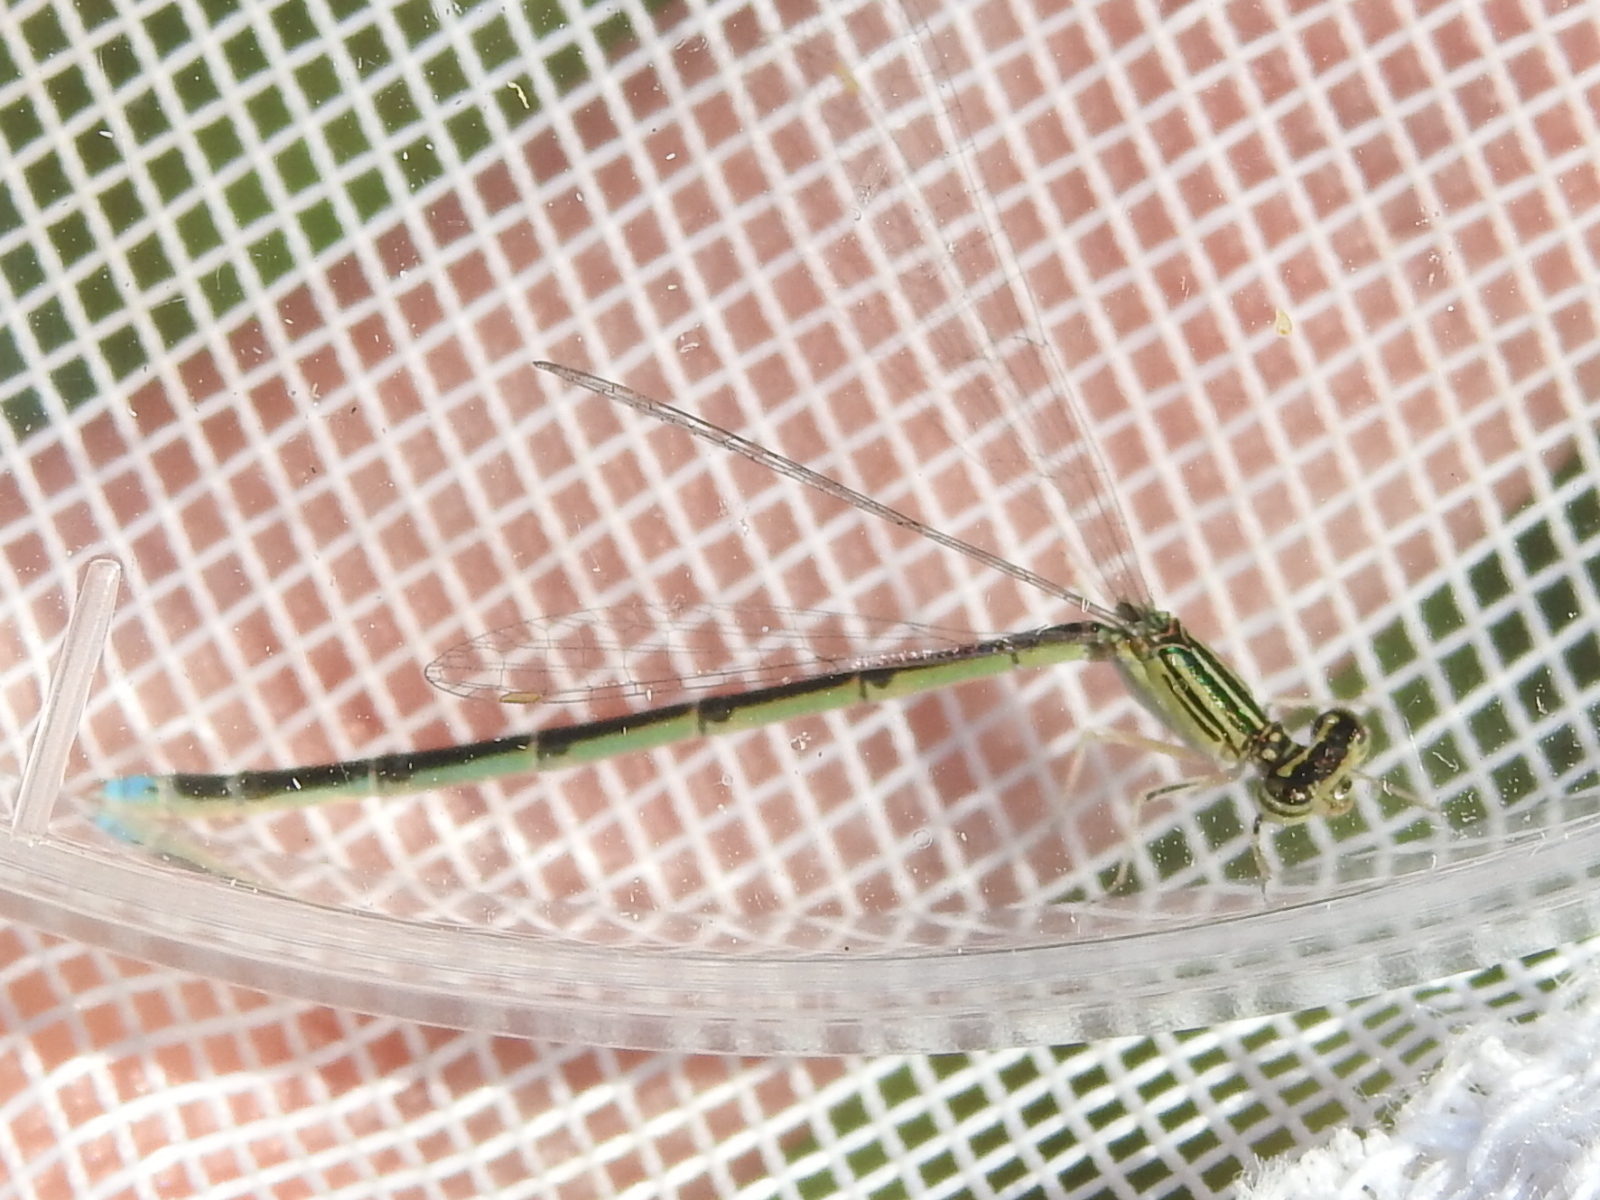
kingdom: Animalia
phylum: Arthropoda
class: Insecta
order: Odonata
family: Coenagrionidae
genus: Enallagma
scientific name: Enallagma basidens
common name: Double-striped bluet
